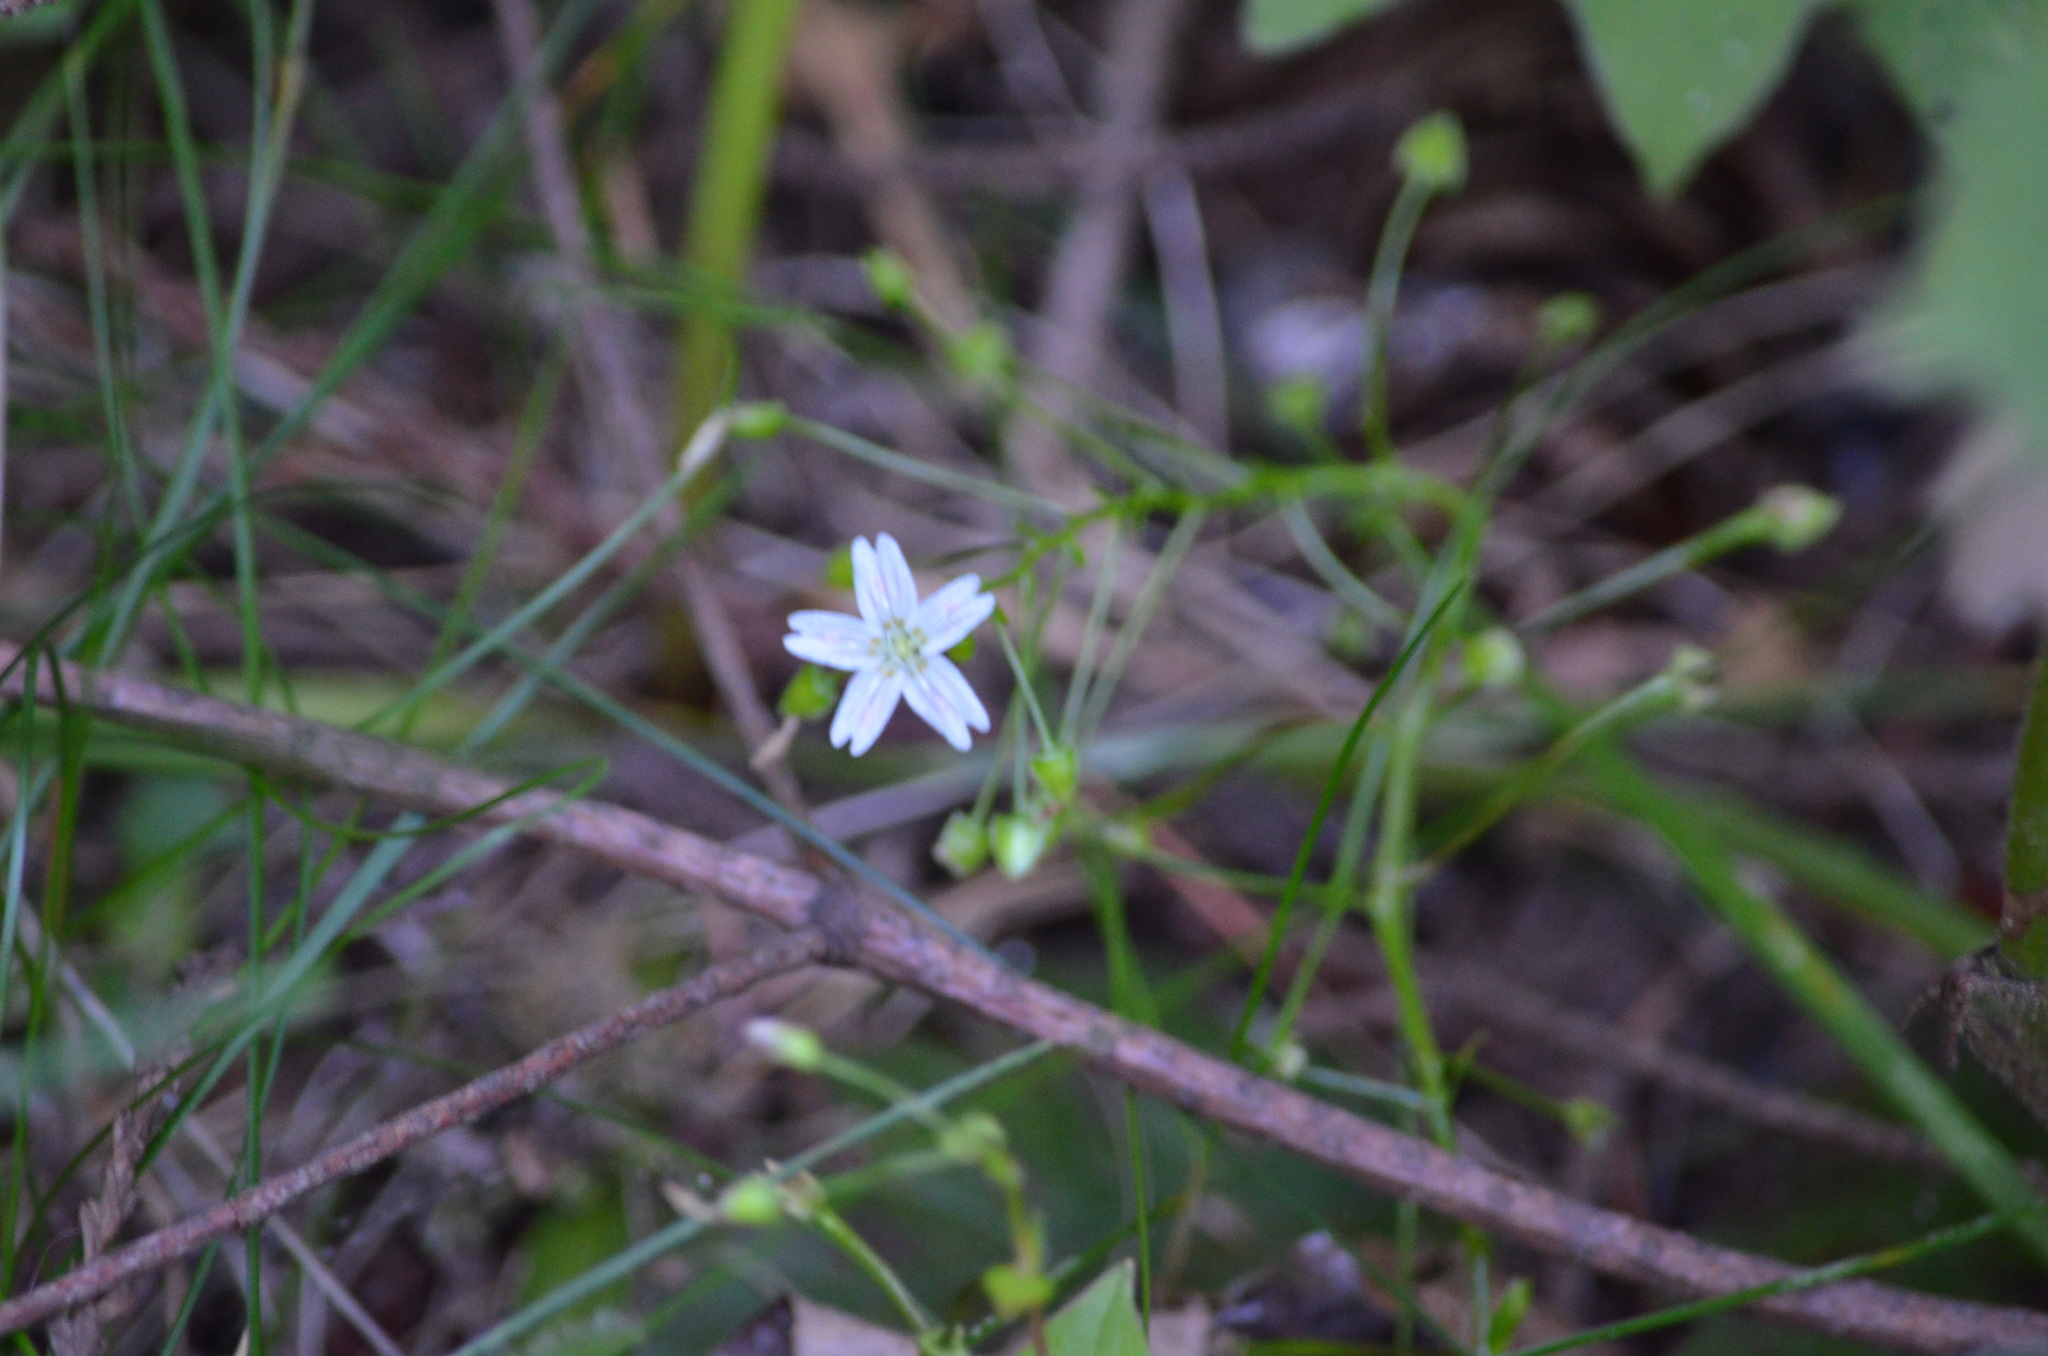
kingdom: Plantae
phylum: Tracheophyta
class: Magnoliopsida
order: Caryophyllales
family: Montiaceae
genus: Claytonia
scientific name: Claytonia sibirica
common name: Pink purslane
